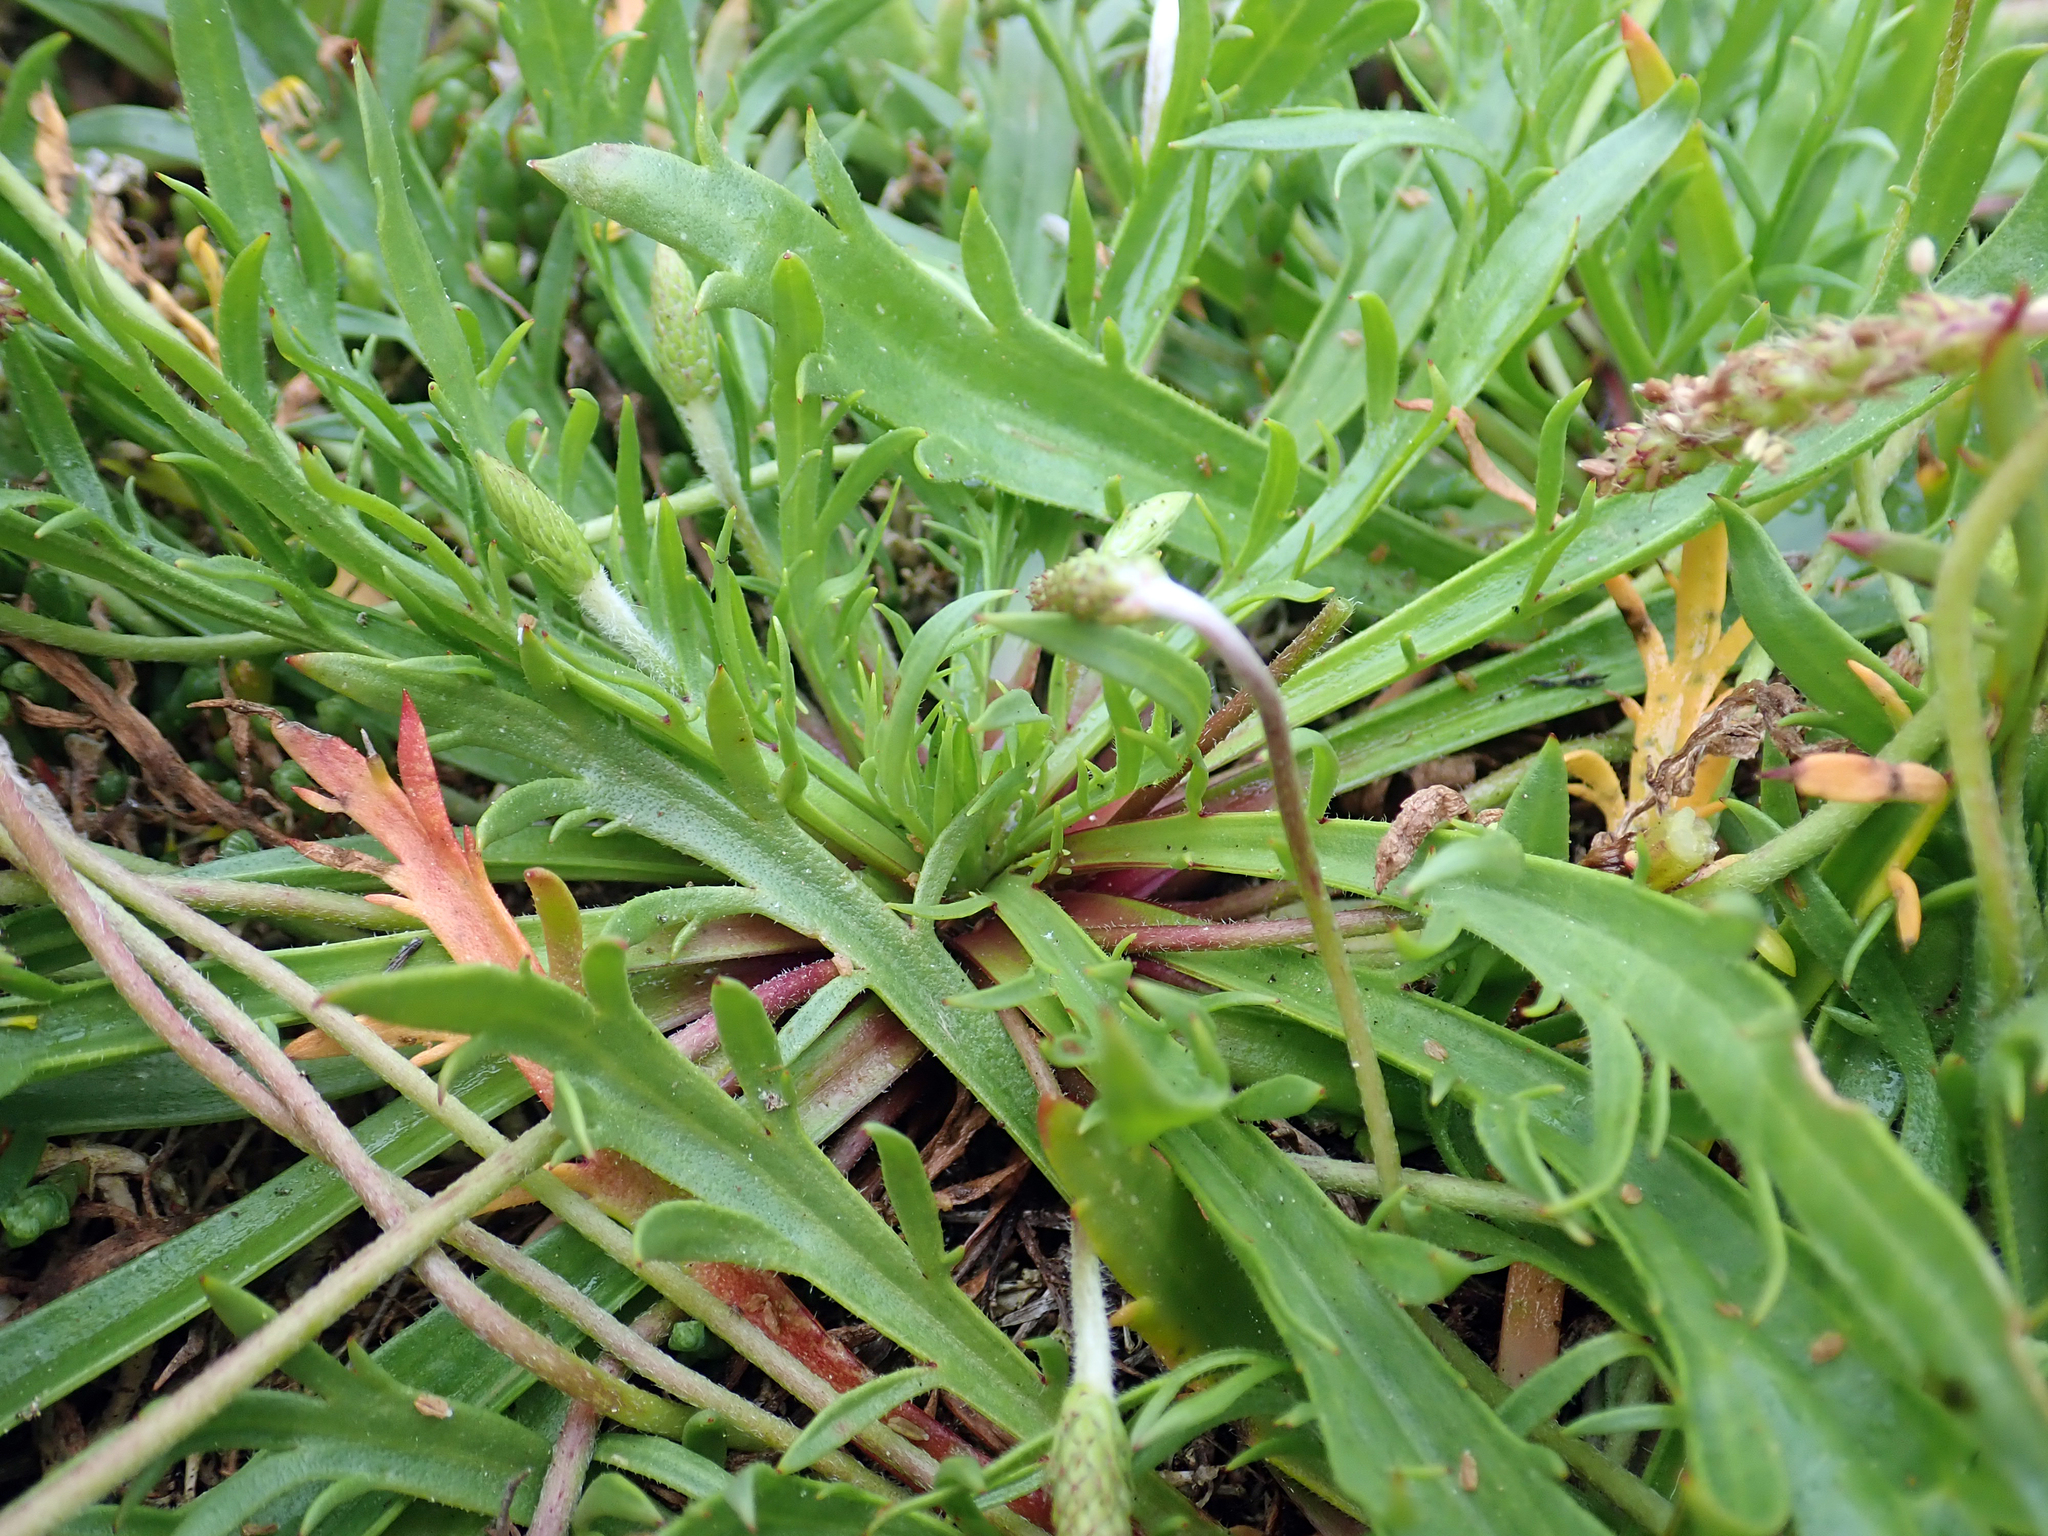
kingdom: Plantae
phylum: Tracheophyta
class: Magnoliopsida
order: Lamiales
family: Plantaginaceae
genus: Plantago
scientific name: Plantago coronopus
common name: Buck's-horn plantain
